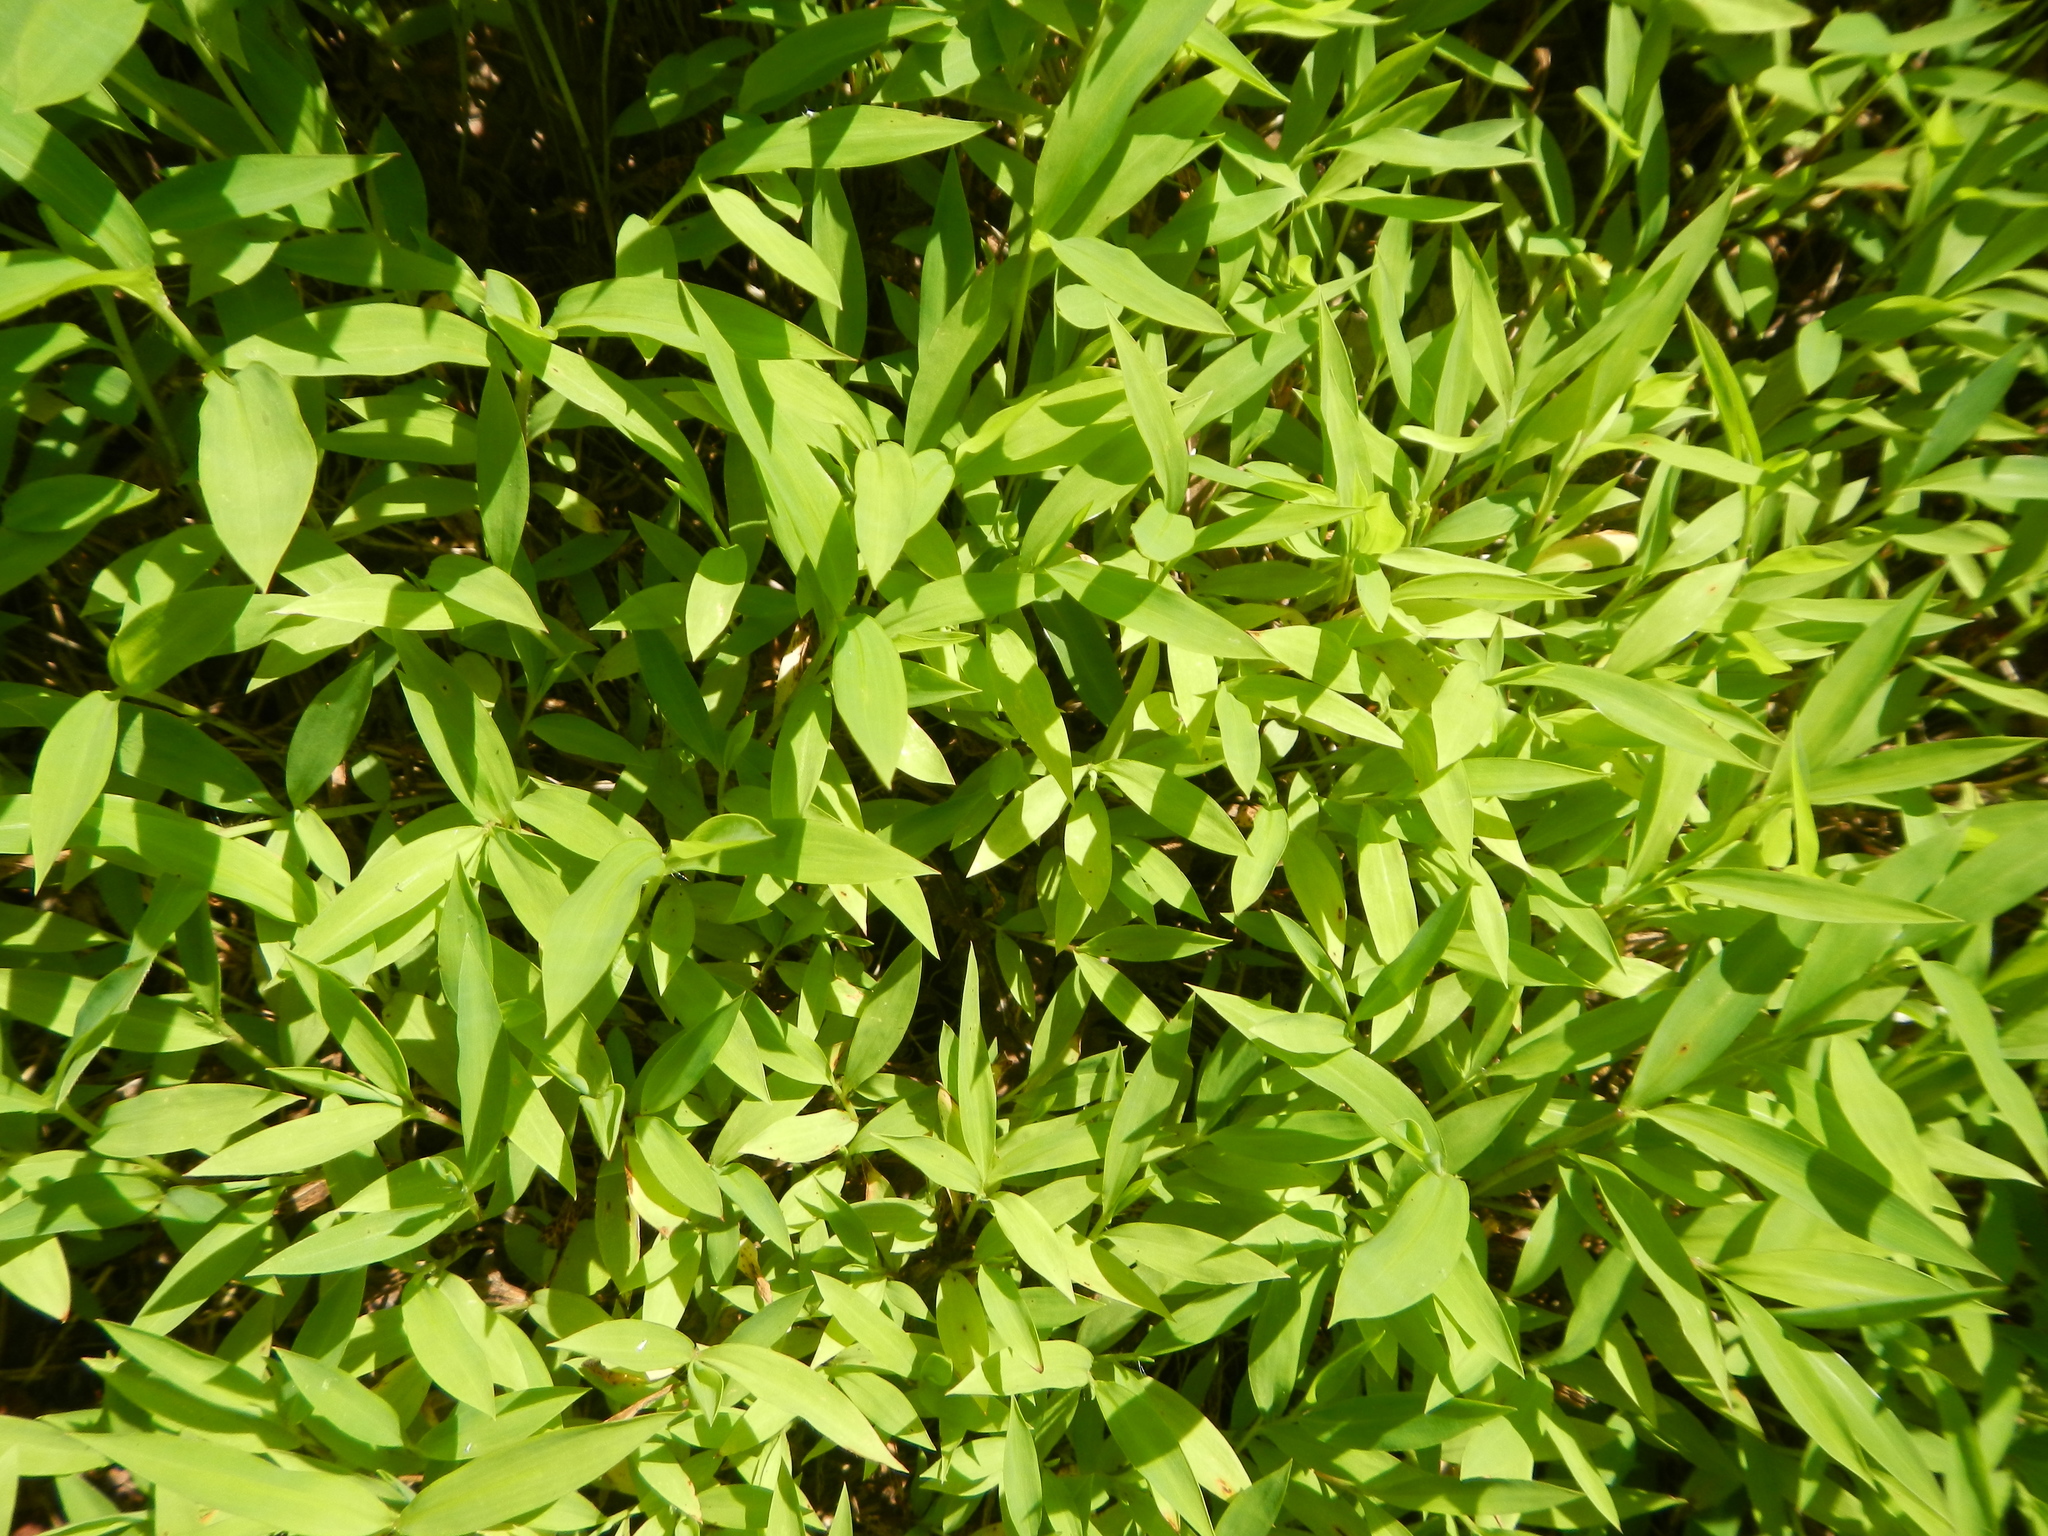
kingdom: Plantae
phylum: Tracheophyta
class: Liliopsida
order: Poales
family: Poaceae
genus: Microstegium
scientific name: Microstegium vimineum
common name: Japanese stiltgrass
